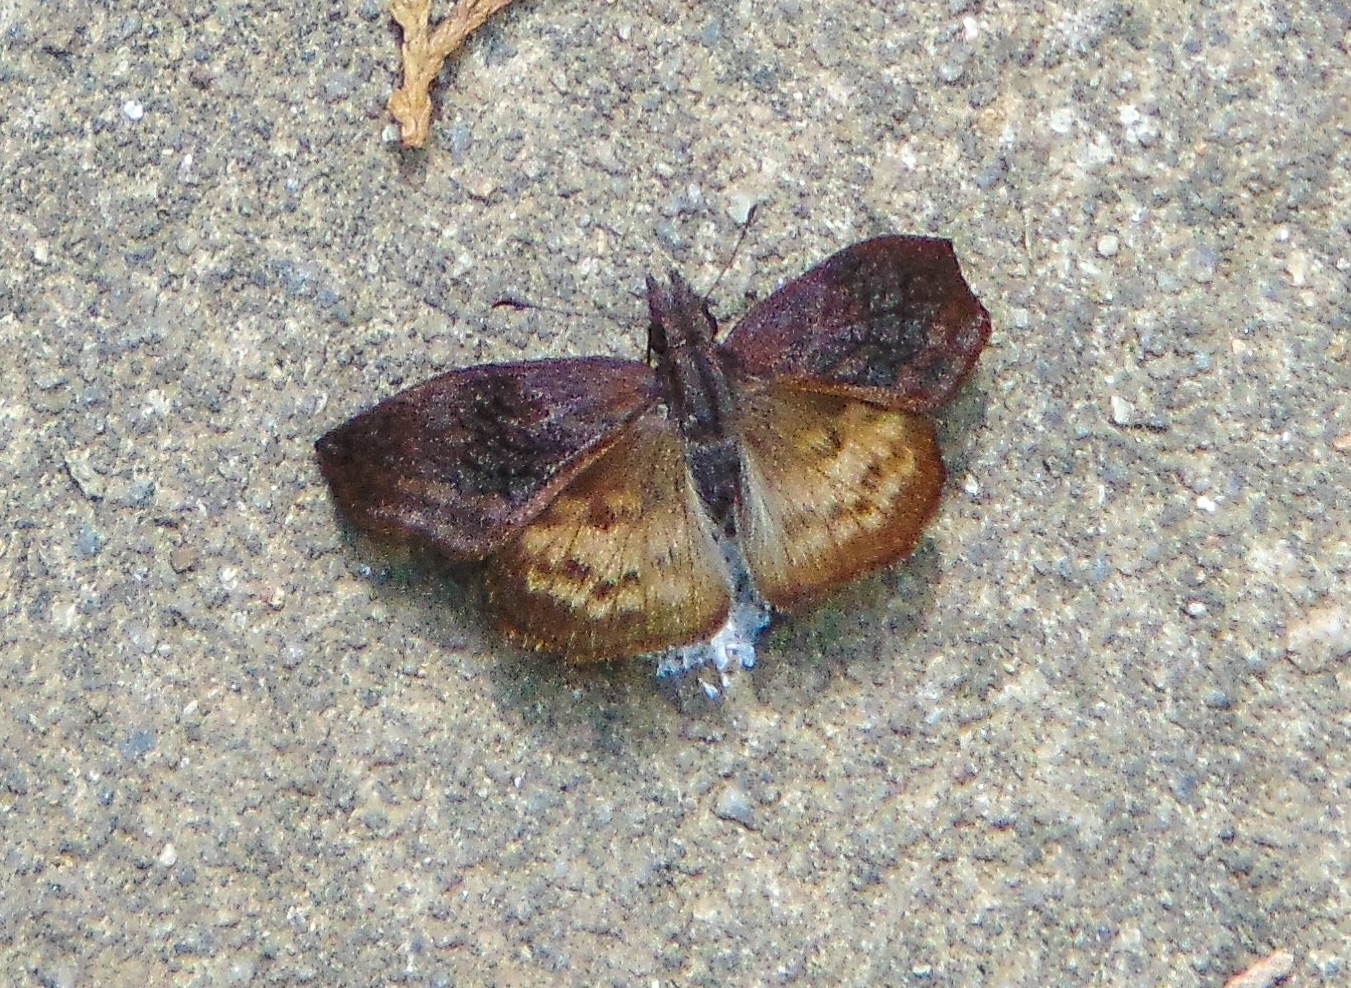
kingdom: Animalia
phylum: Arthropoda
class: Insecta
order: Lepidoptera
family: Hesperiidae
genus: Theagenes
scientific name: Theagenes dichrous
